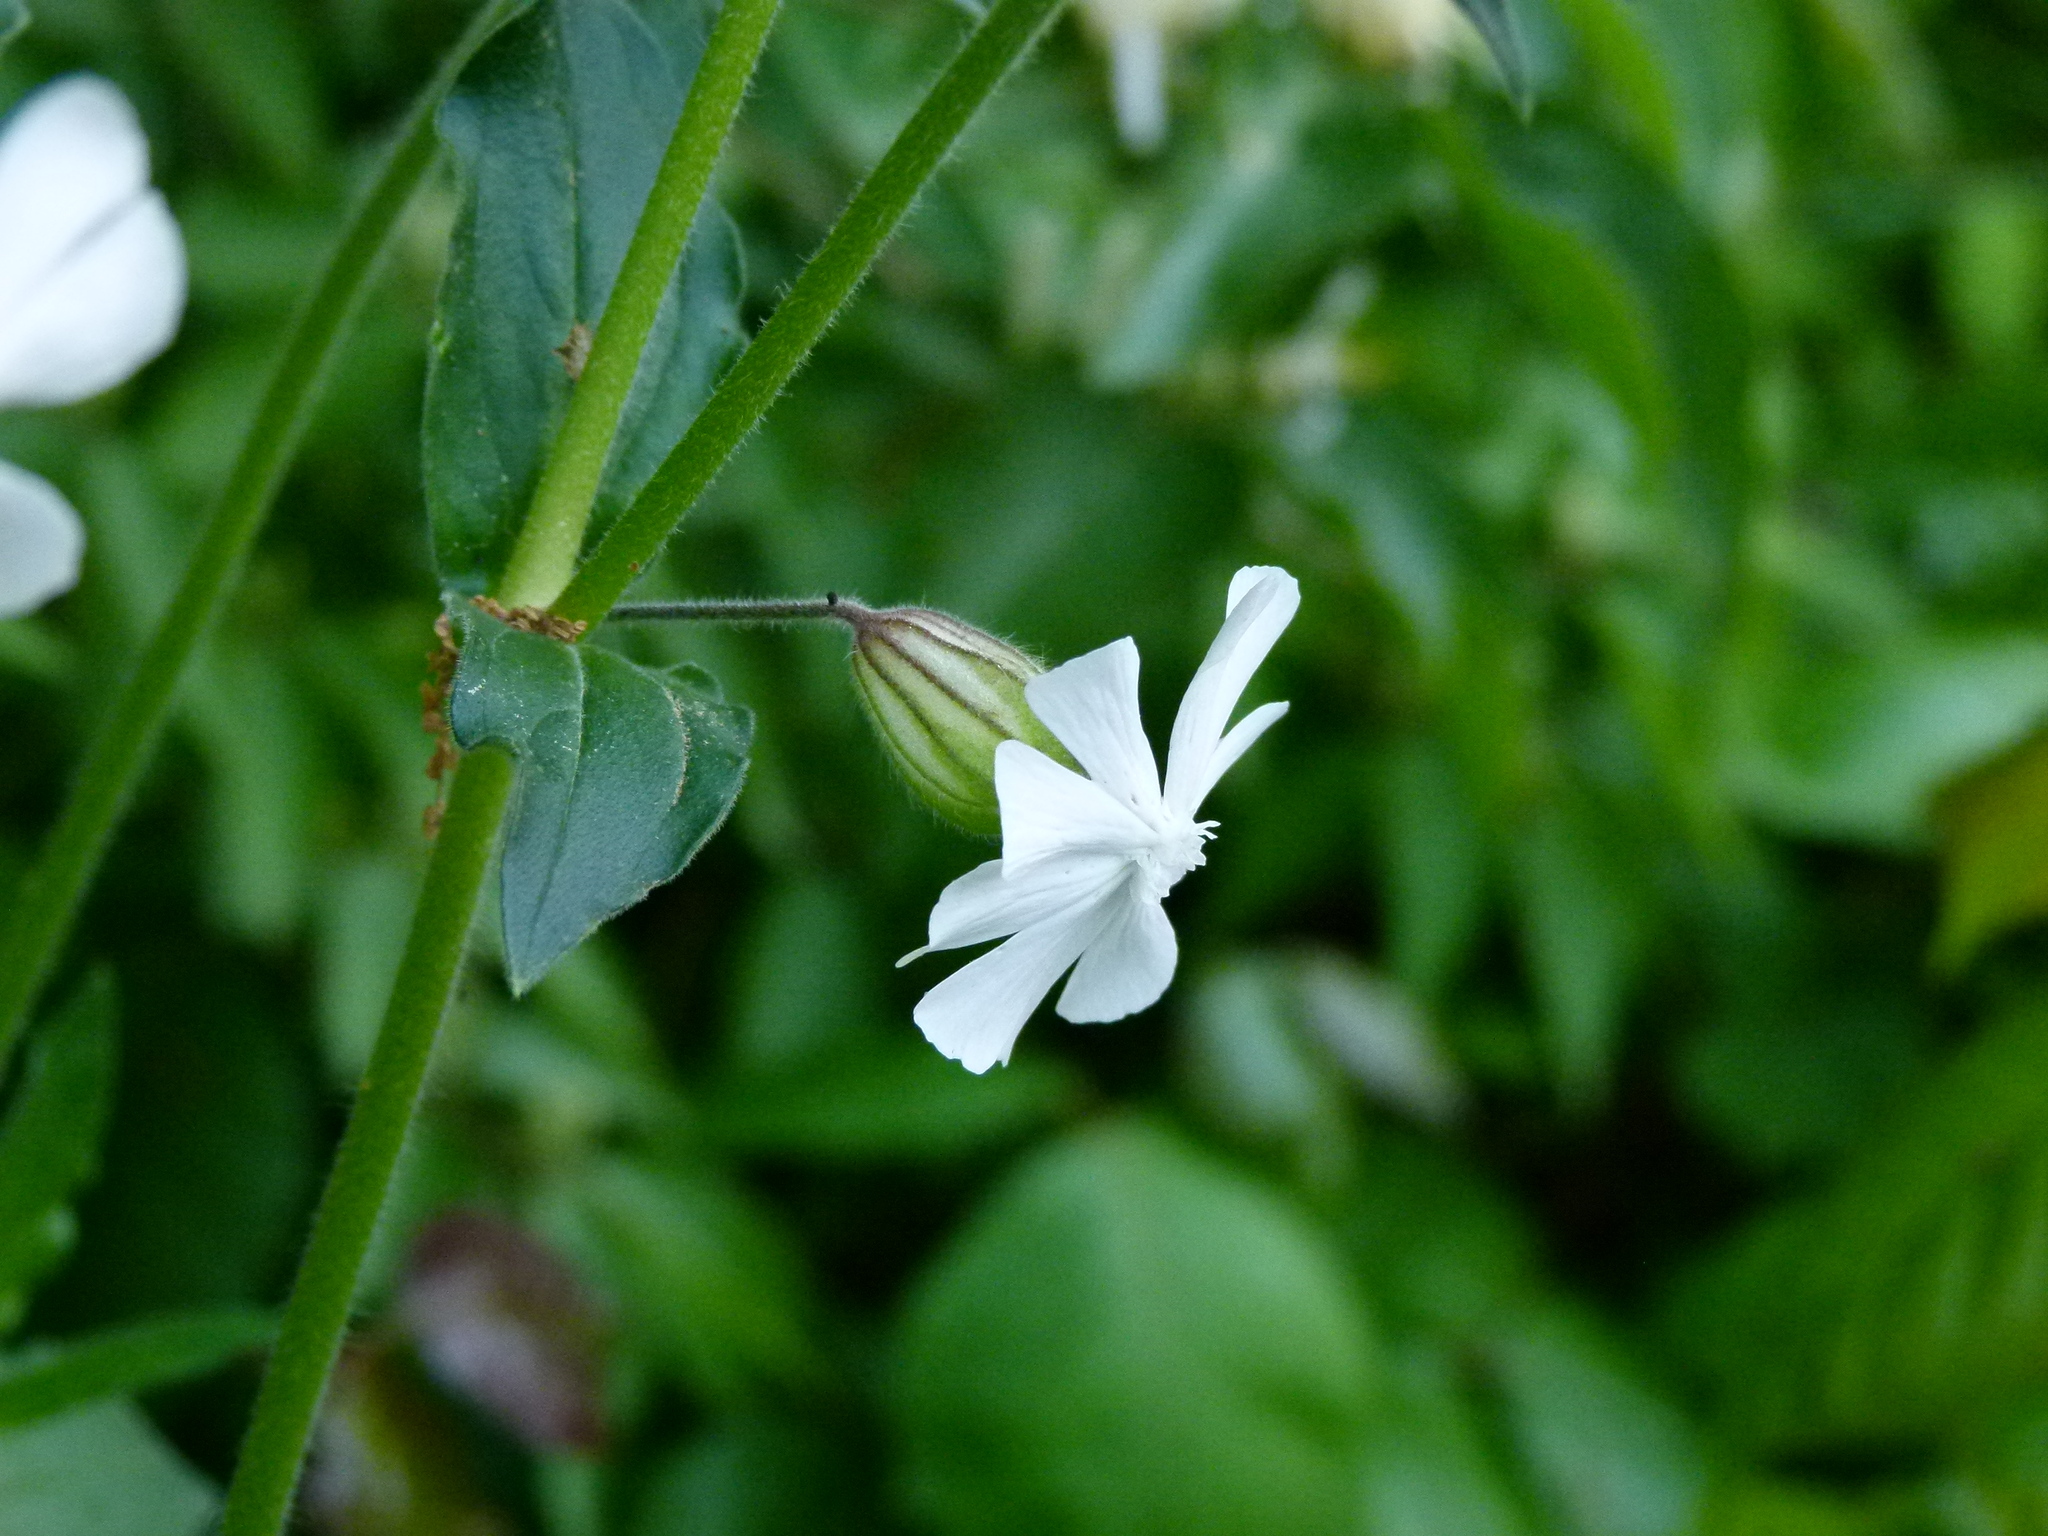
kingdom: Plantae
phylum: Tracheophyta
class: Magnoliopsida
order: Caryophyllales
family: Caryophyllaceae
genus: Silene
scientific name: Silene latifolia
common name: White campion
